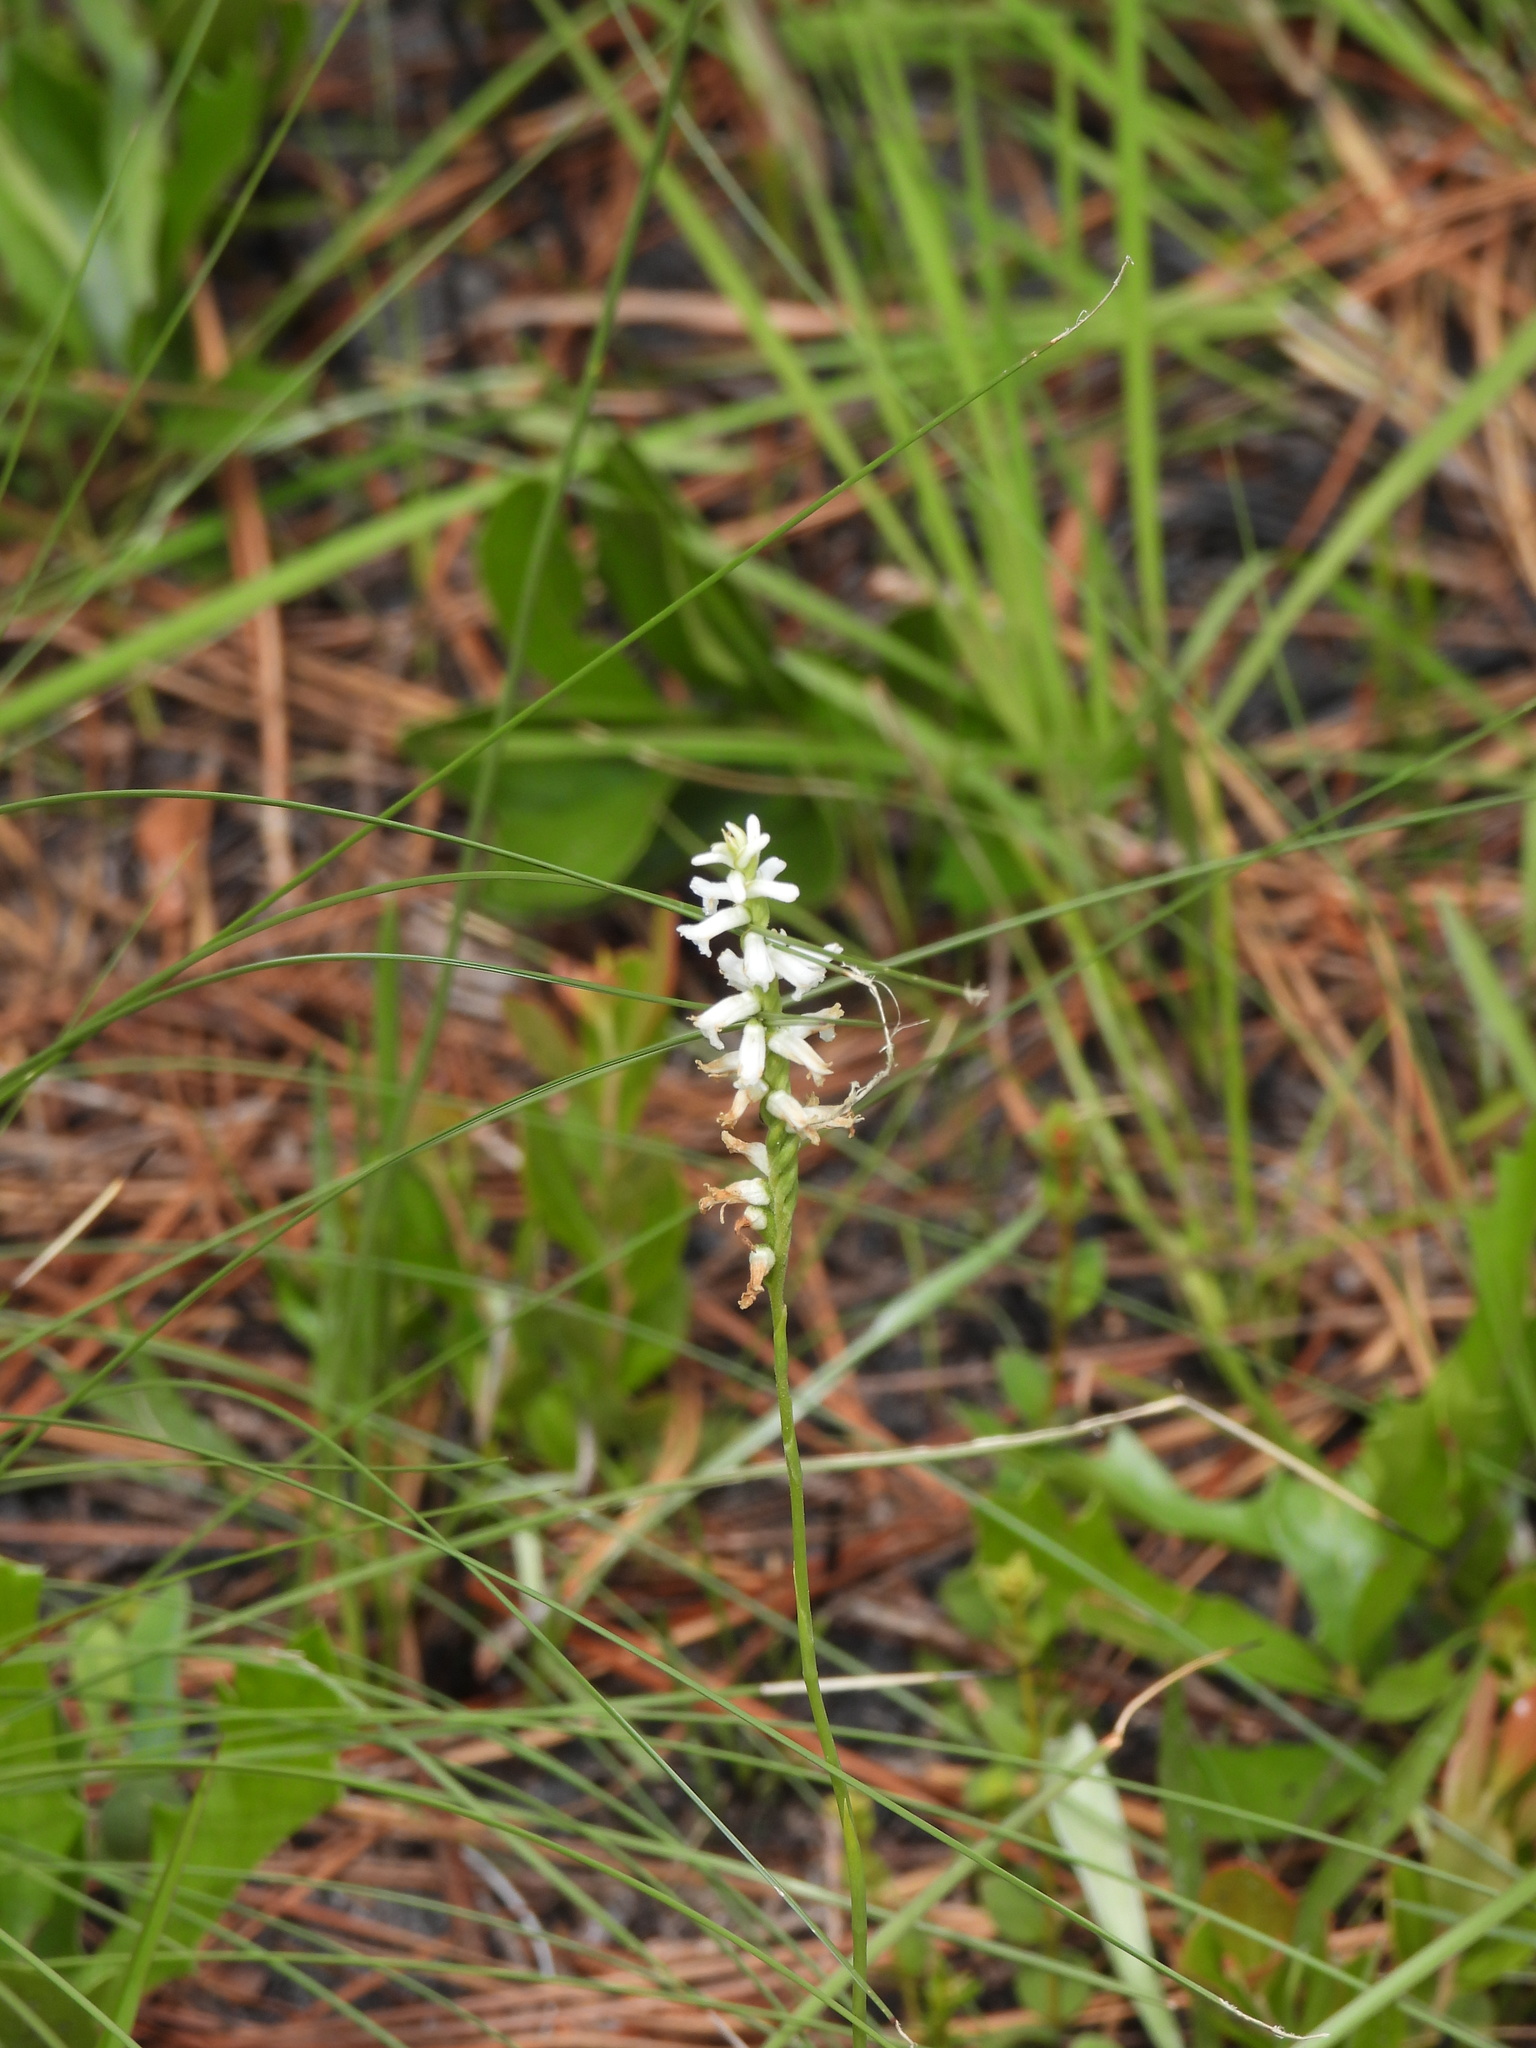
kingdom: Plantae
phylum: Tracheophyta
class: Liliopsida
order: Asparagales
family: Orchidaceae
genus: Spiranthes
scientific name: Spiranthes praecox
